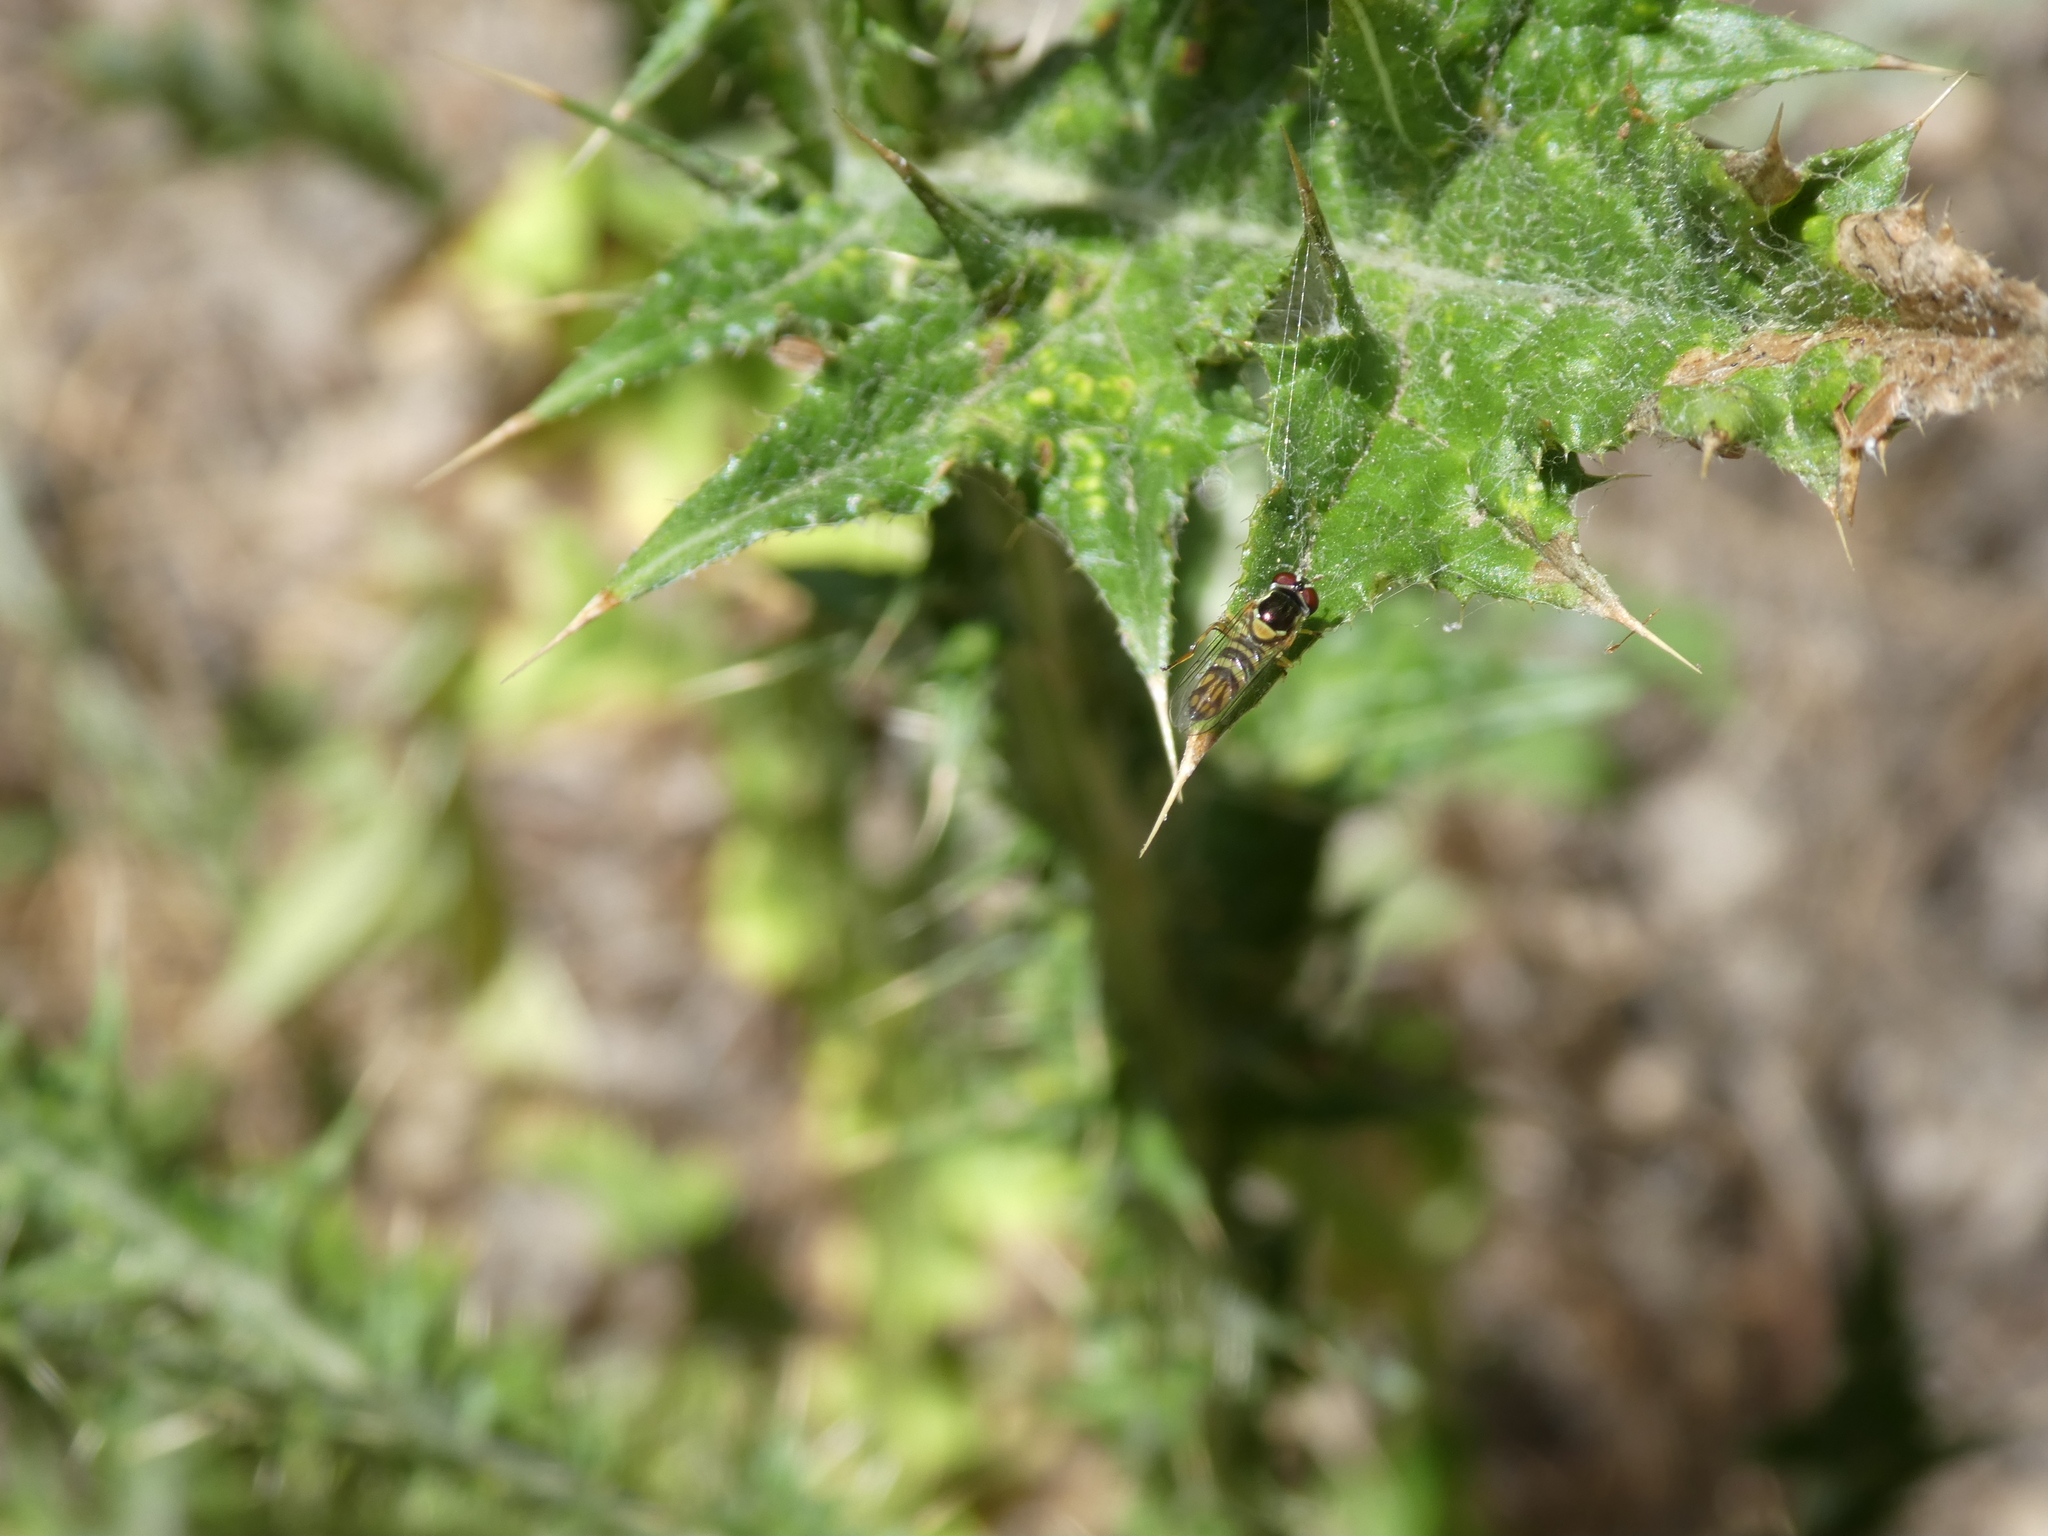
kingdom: Animalia
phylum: Arthropoda
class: Insecta
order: Diptera
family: Syrphidae
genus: Allograpta
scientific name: Allograpta obliqua
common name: Common oblique syrphid
